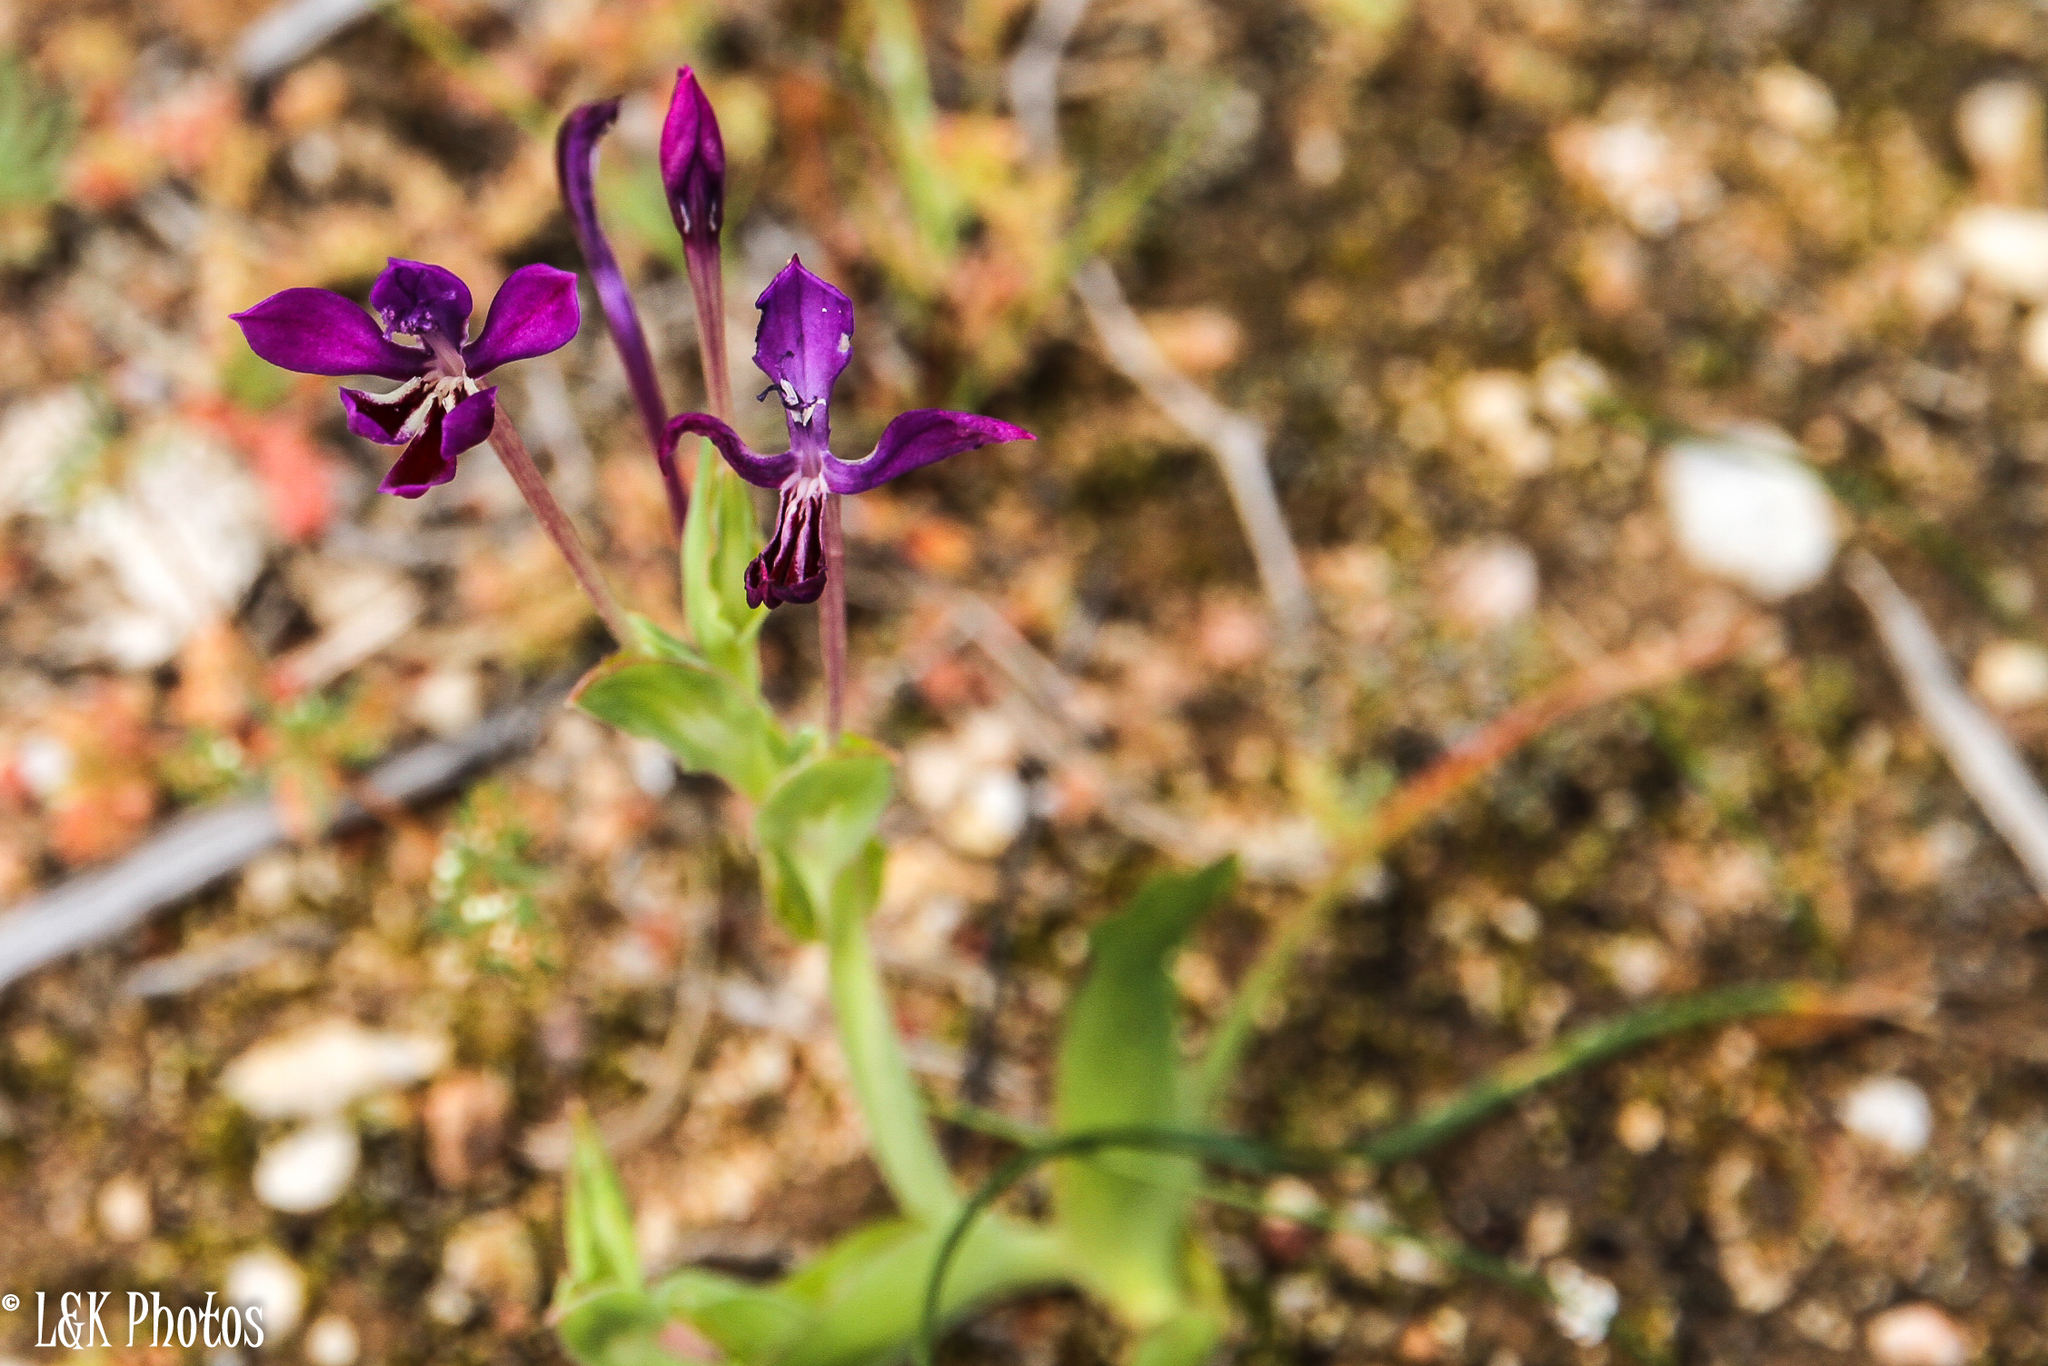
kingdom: Plantae
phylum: Tracheophyta
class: Liliopsida
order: Asparagales
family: Iridaceae
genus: Lapeirousia
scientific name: Lapeirousia jacquinii
